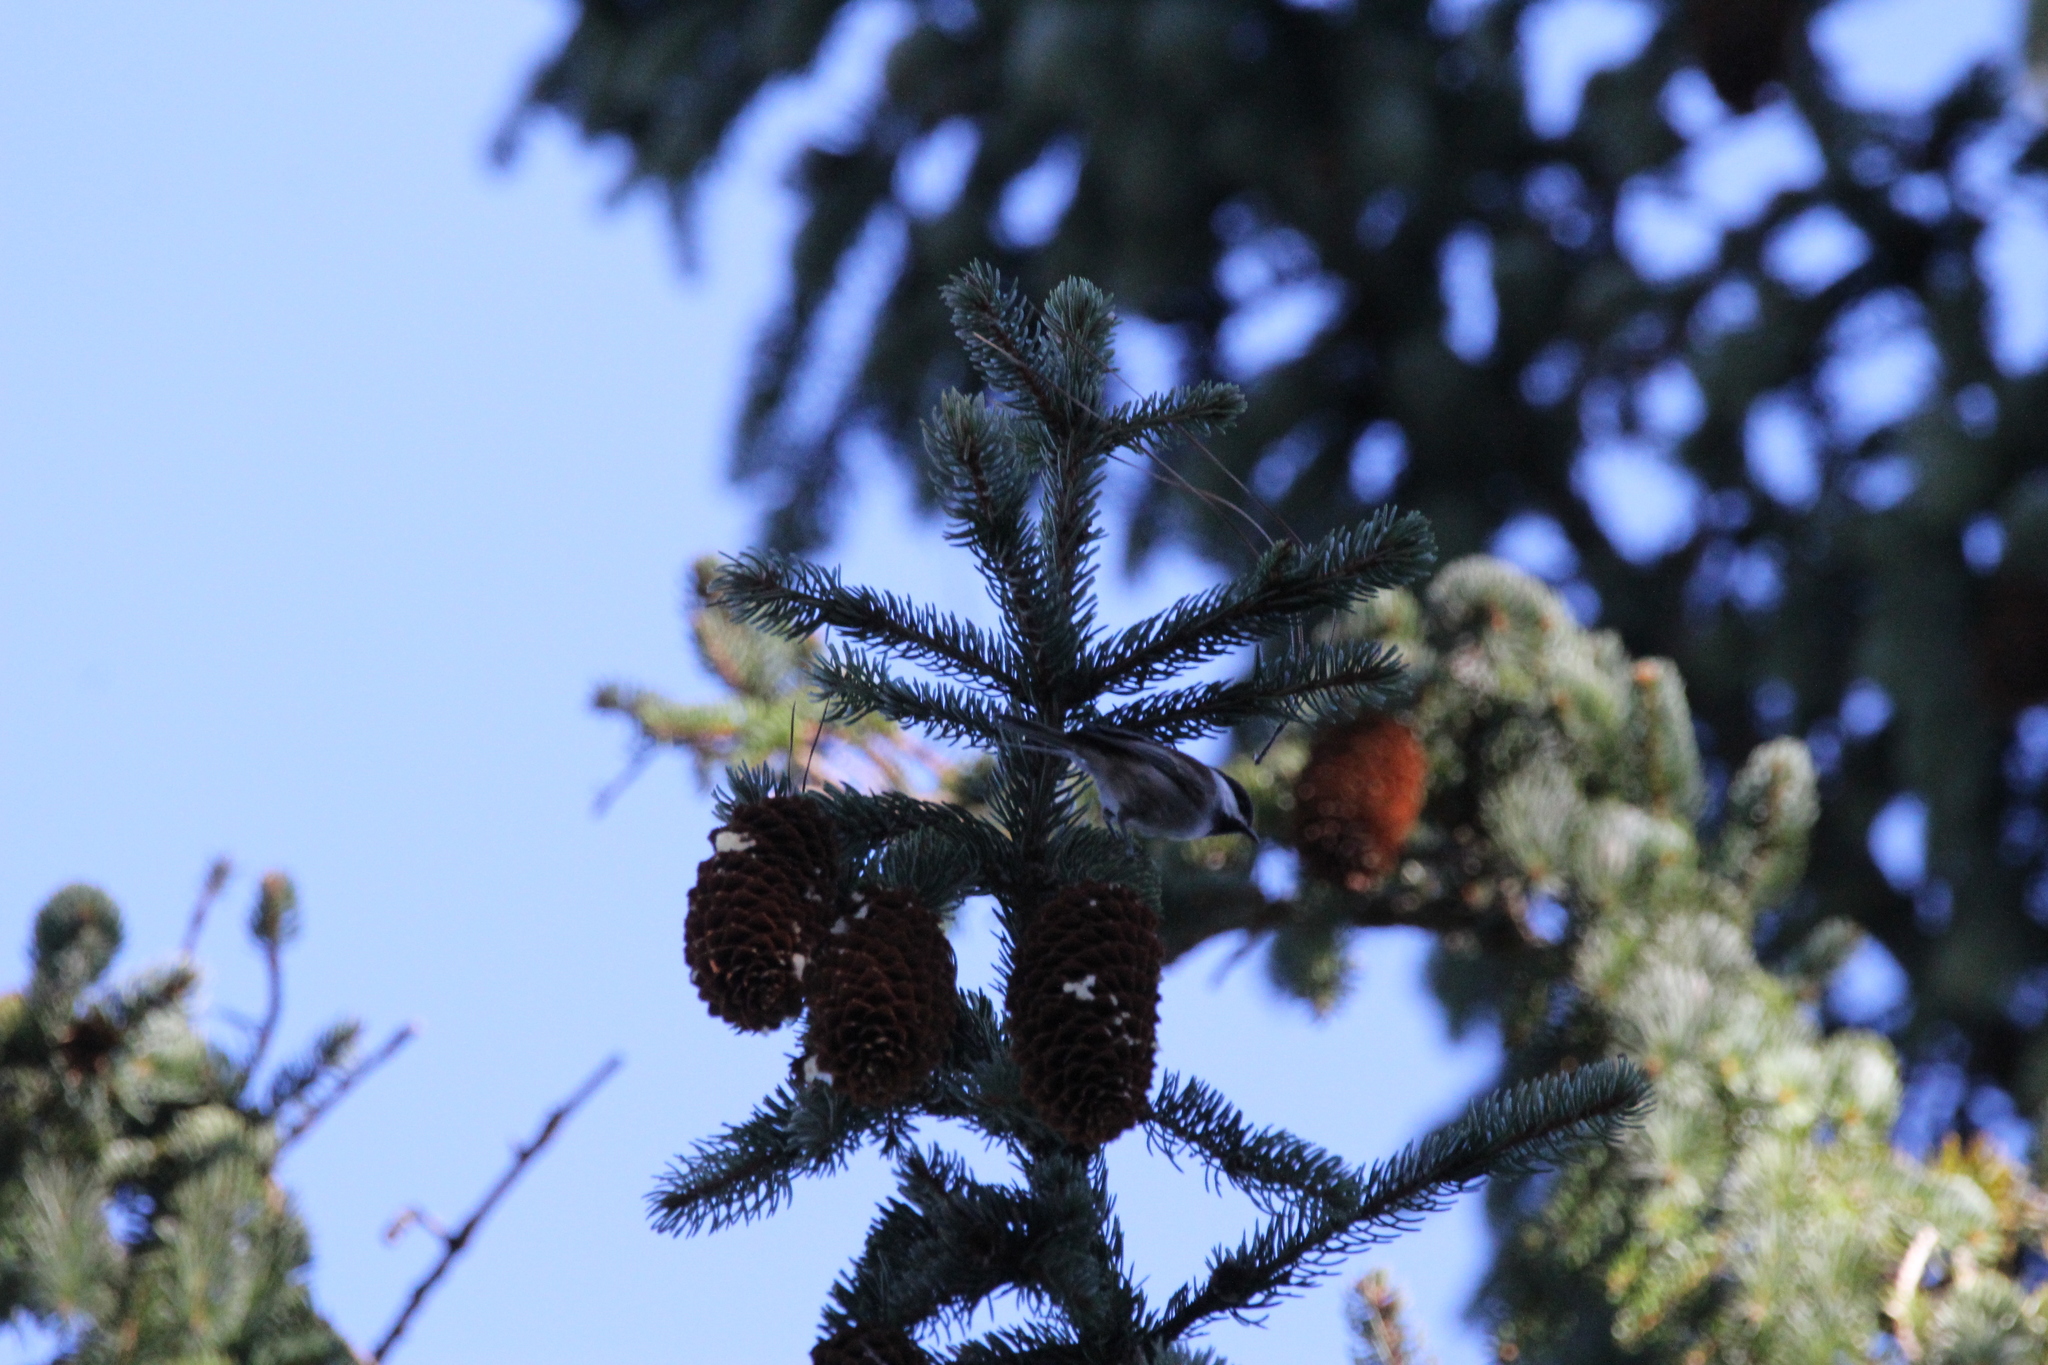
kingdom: Animalia
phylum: Chordata
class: Aves
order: Passeriformes
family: Paridae
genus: Poecile
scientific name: Poecile rufescens
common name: Chestnut-backed chickadee
